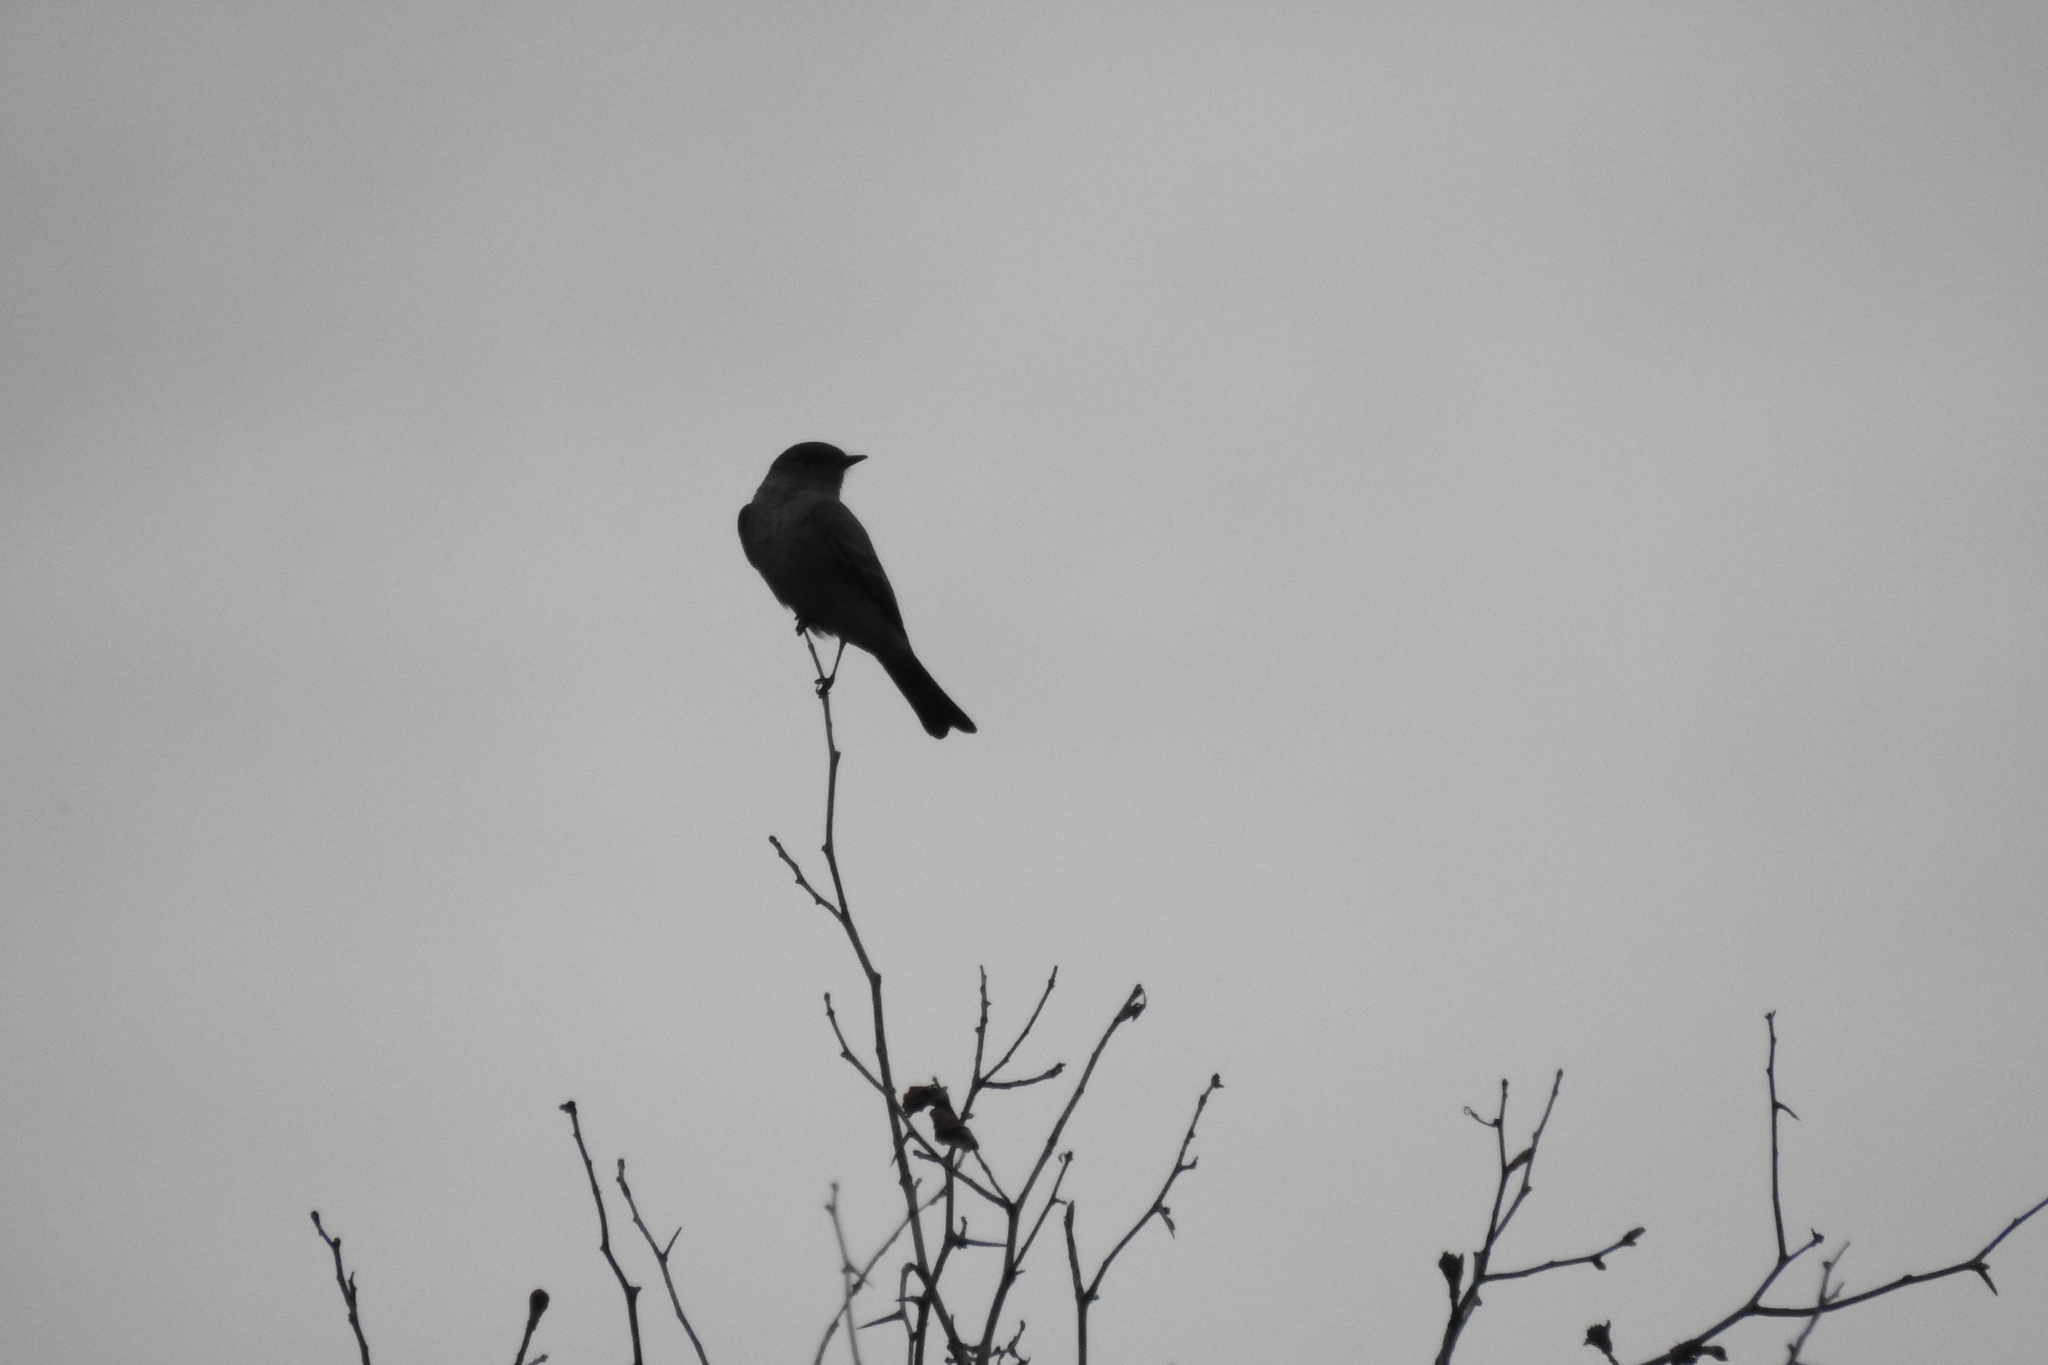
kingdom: Animalia
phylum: Chordata
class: Aves
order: Passeriformes
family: Tyrannidae
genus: Sayornis
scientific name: Sayornis saya
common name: Say's phoebe
